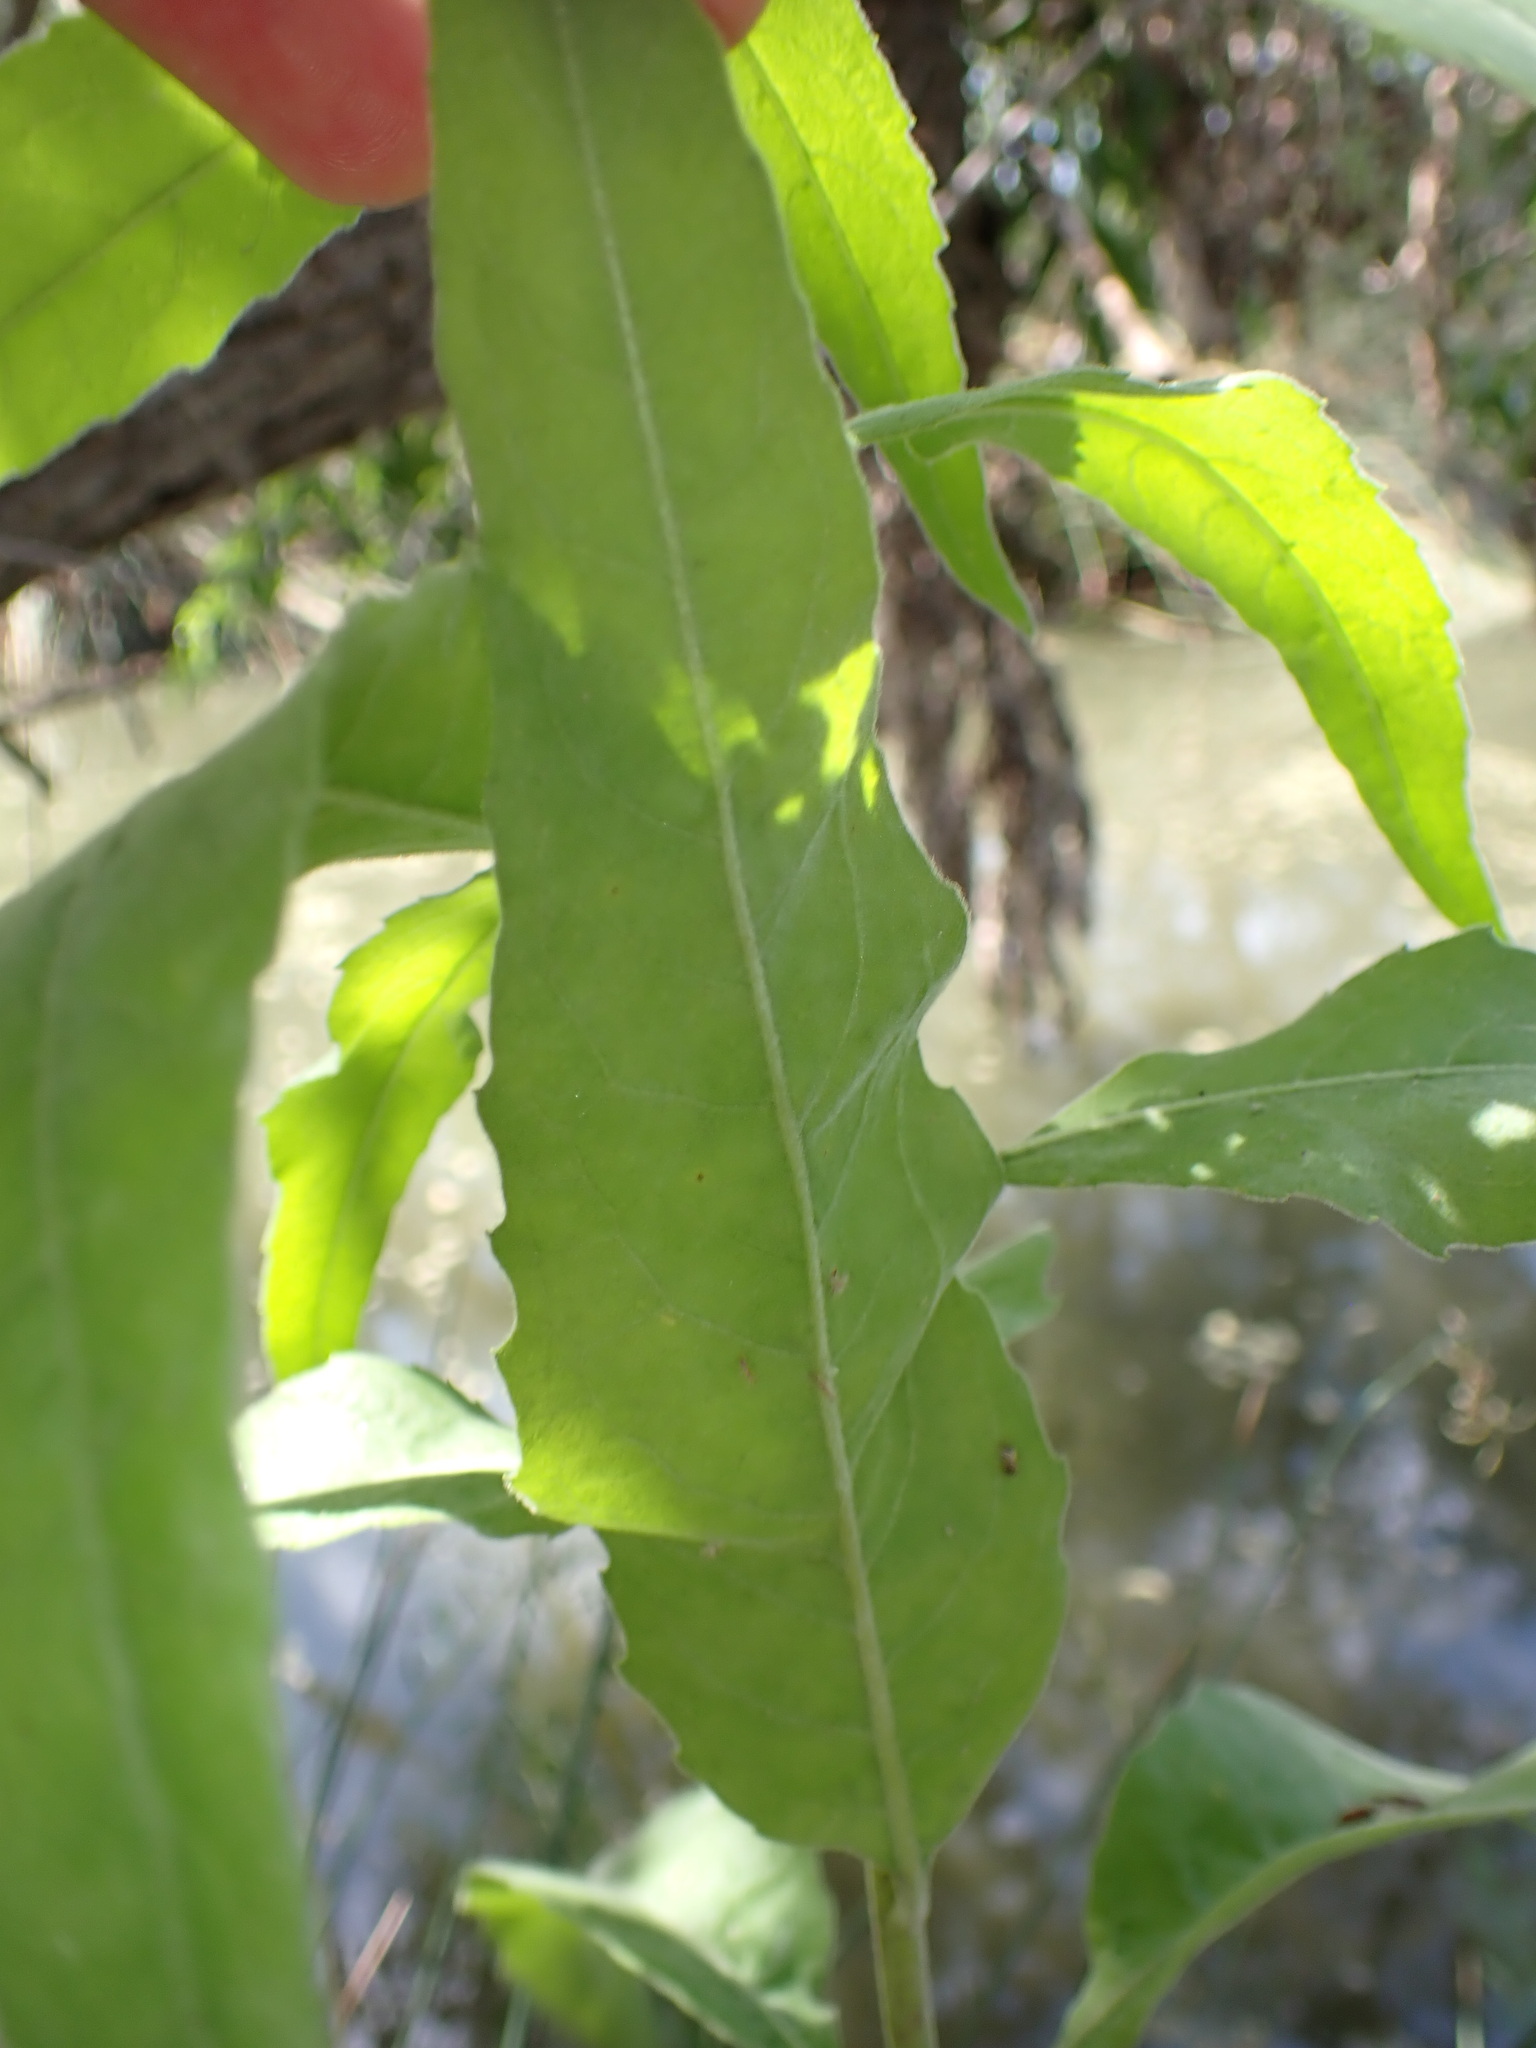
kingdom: Plantae
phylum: Tracheophyta
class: Magnoliopsida
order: Asterales
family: Asteraceae
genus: Pluchea
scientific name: Pluchea odorata
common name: Saltmarsh fleabane
